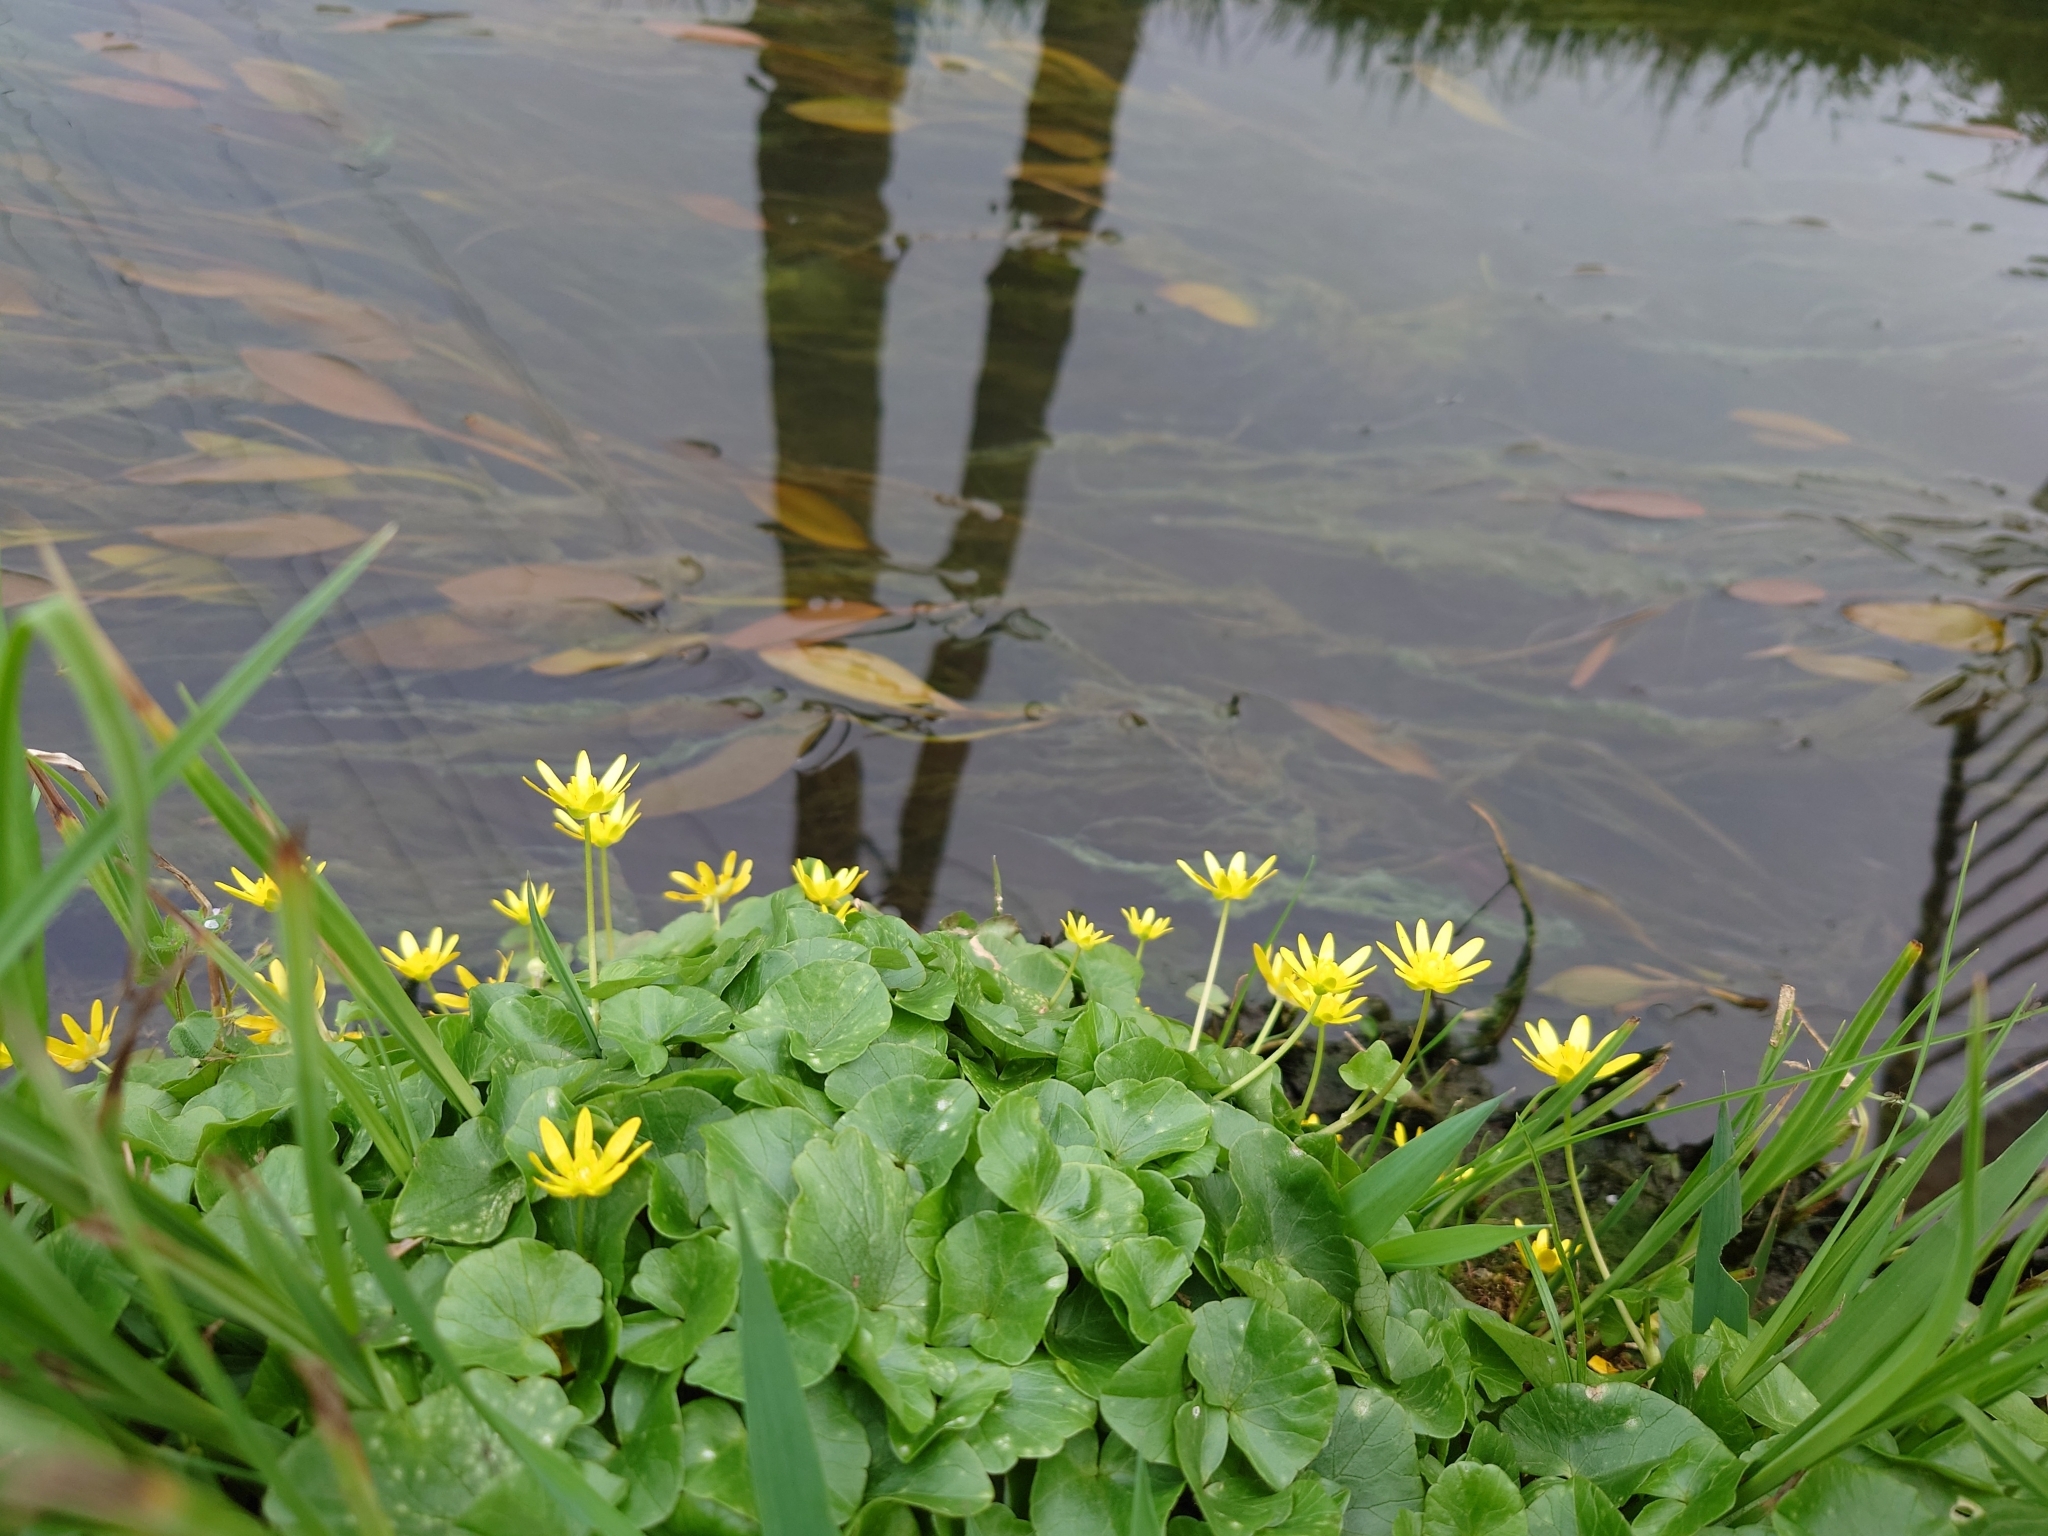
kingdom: Plantae
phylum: Tracheophyta
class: Magnoliopsida
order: Ranunculales
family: Ranunculaceae
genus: Ficaria
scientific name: Ficaria verna
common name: Lesser celandine
